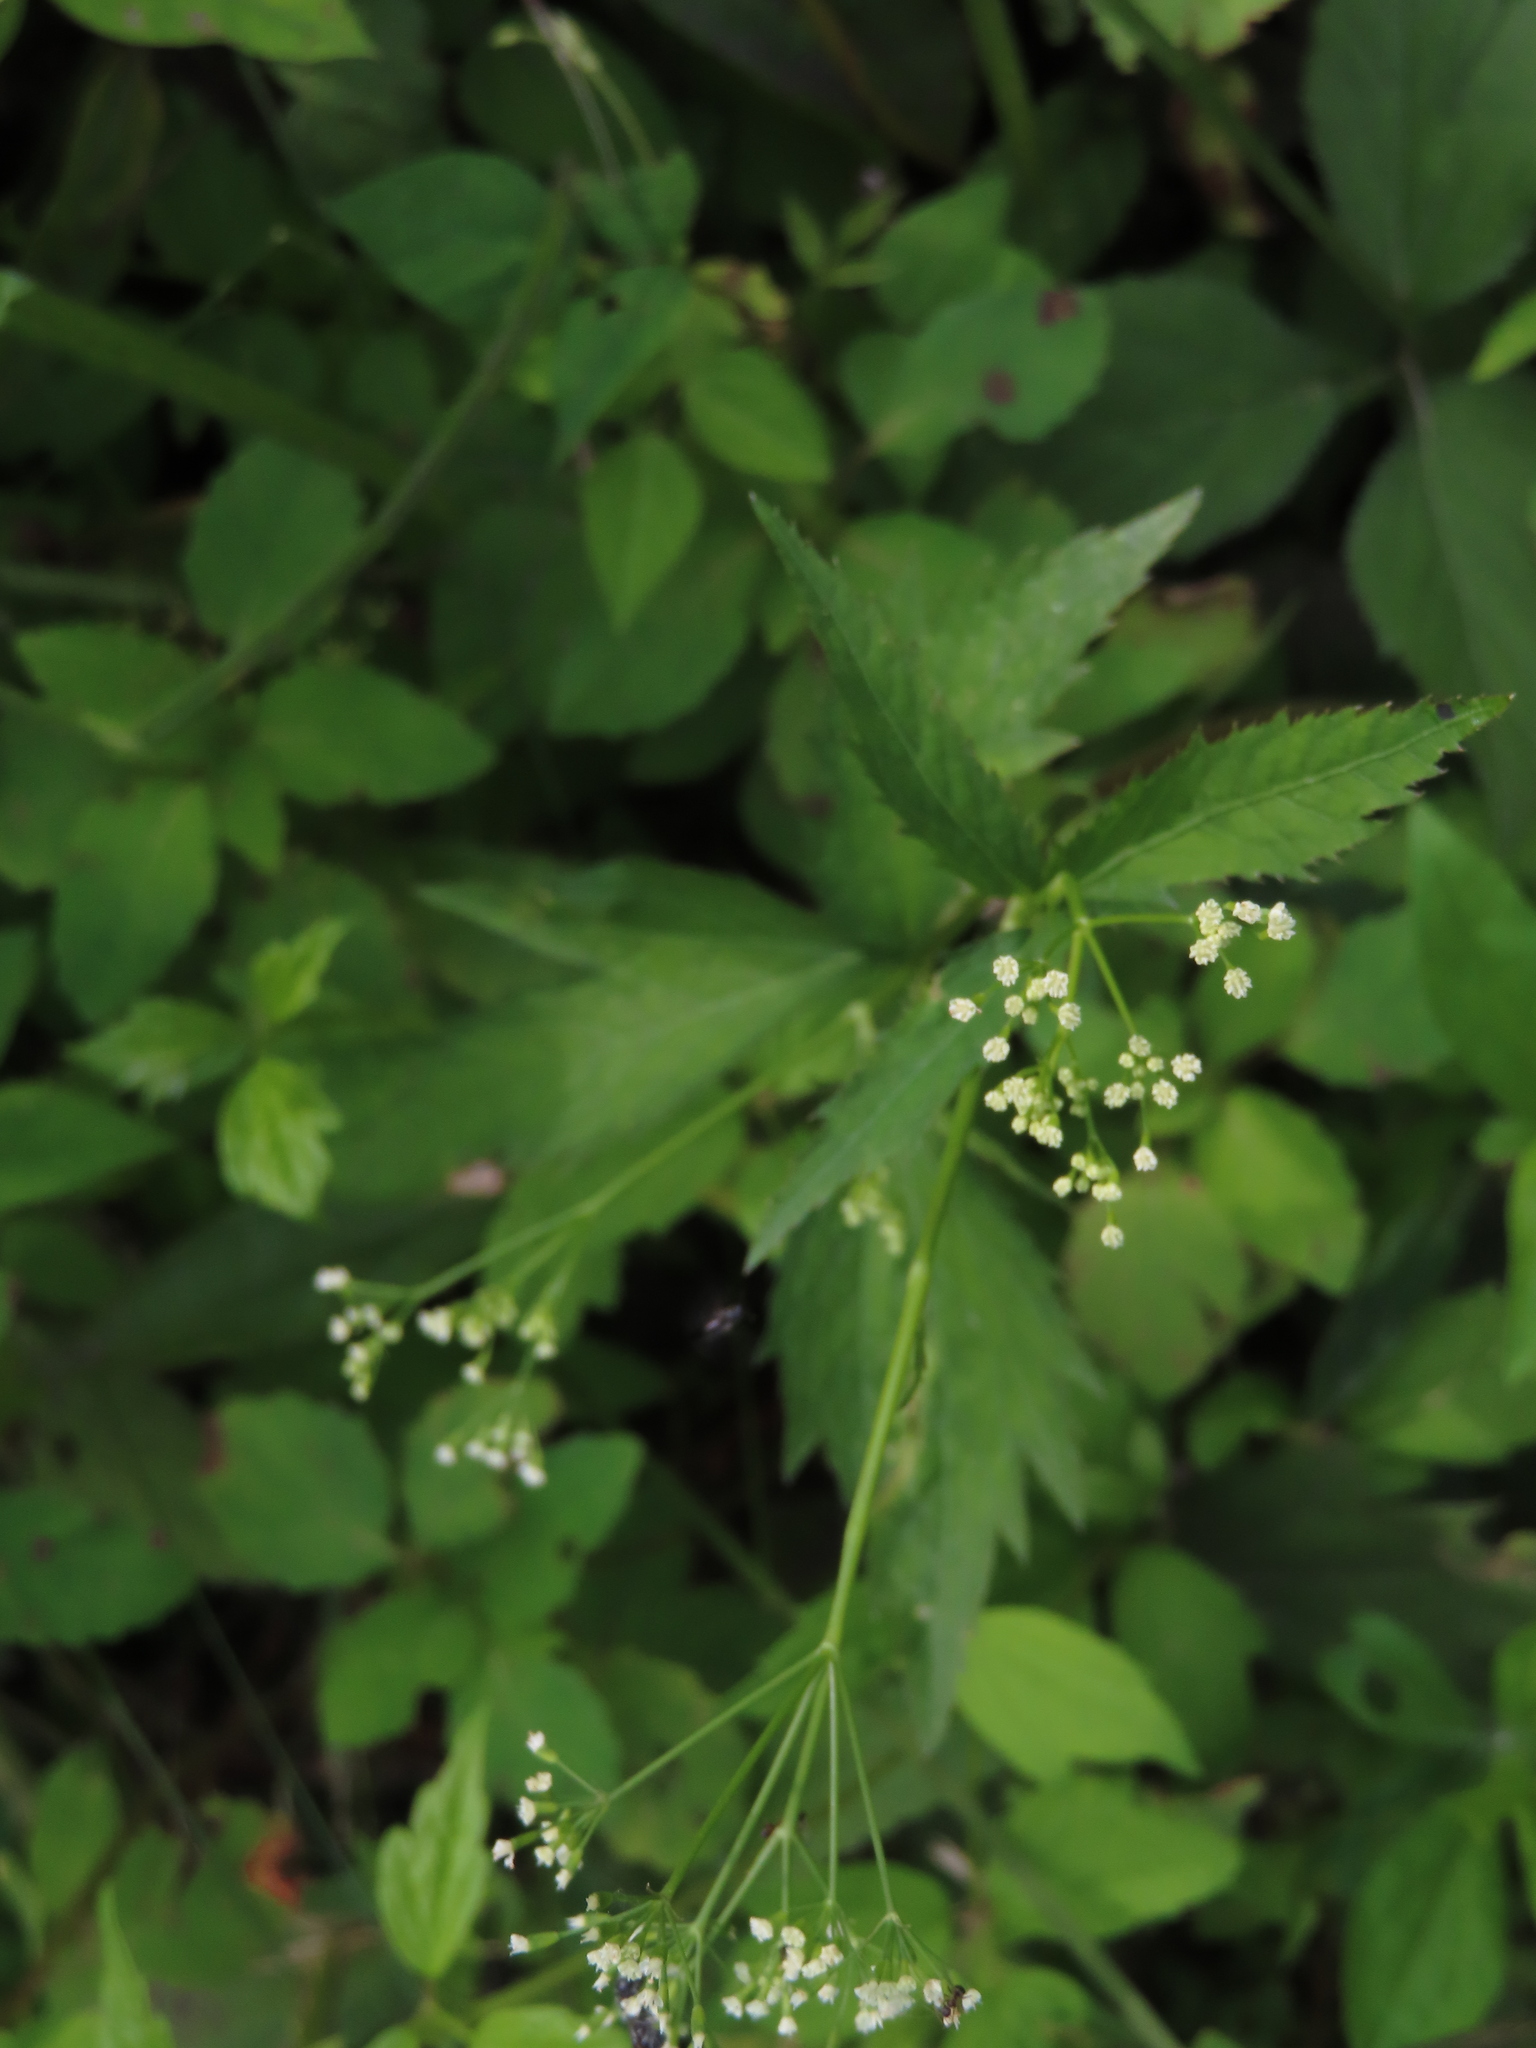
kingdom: Plantae
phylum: Tracheophyta
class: Magnoliopsida
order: Apiales
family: Apiaceae
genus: Cryptotaenia
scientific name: Cryptotaenia canadensis
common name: Honewort
